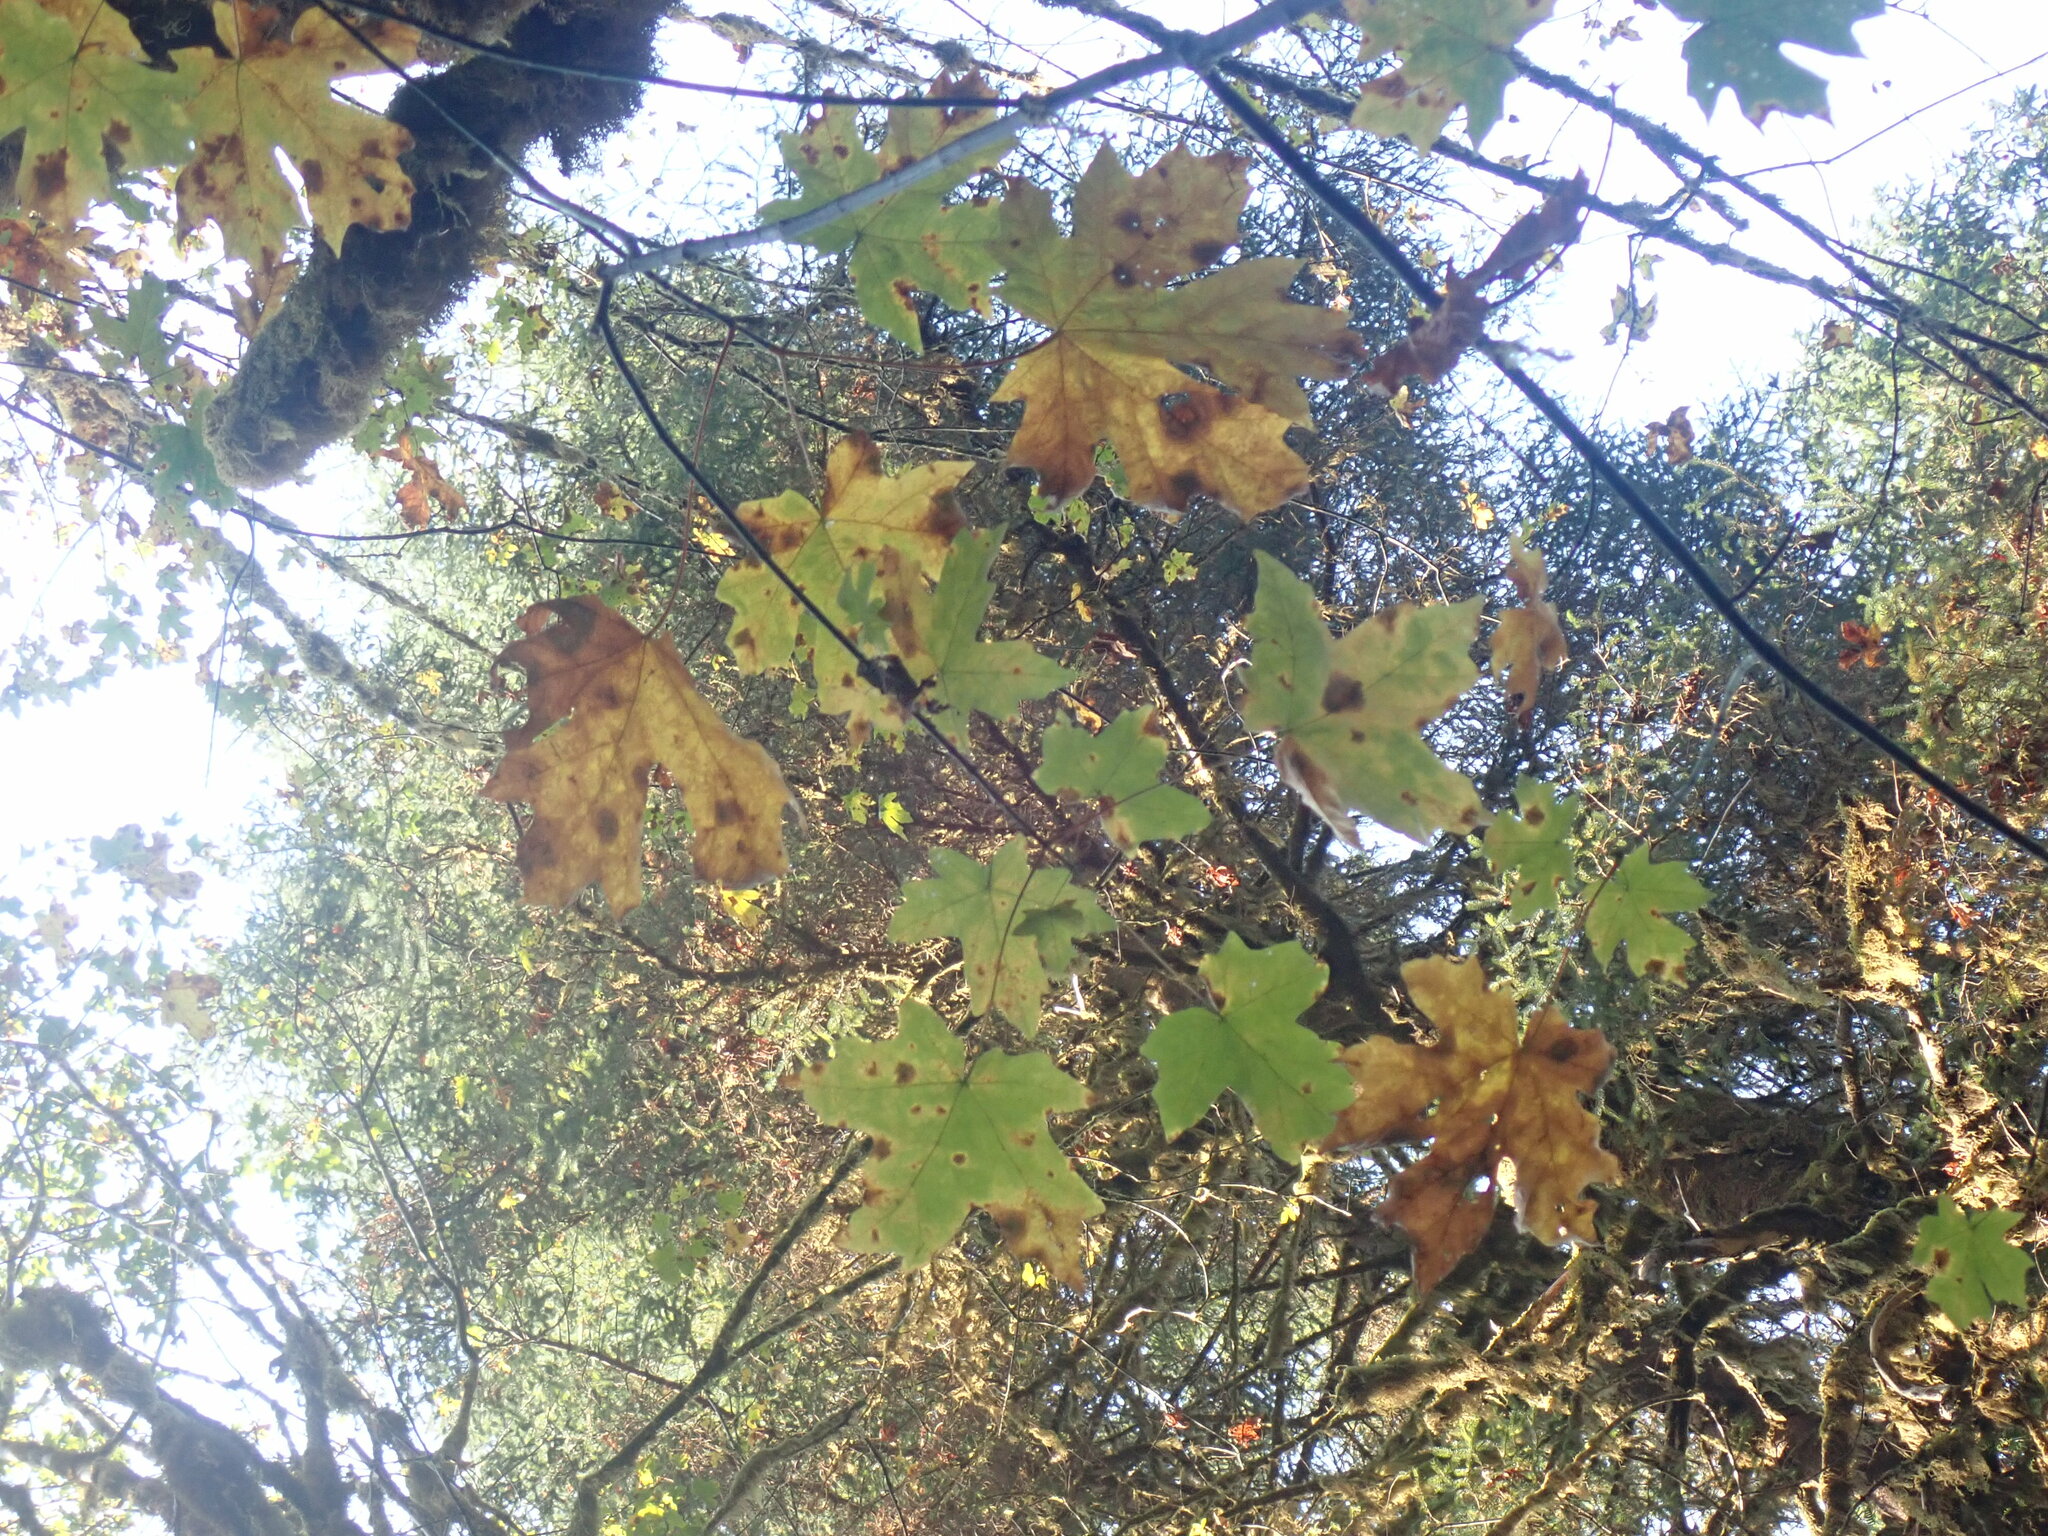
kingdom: Plantae
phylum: Tracheophyta
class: Magnoliopsida
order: Sapindales
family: Sapindaceae
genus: Acer
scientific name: Acer macrophyllum
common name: Oregon maple
